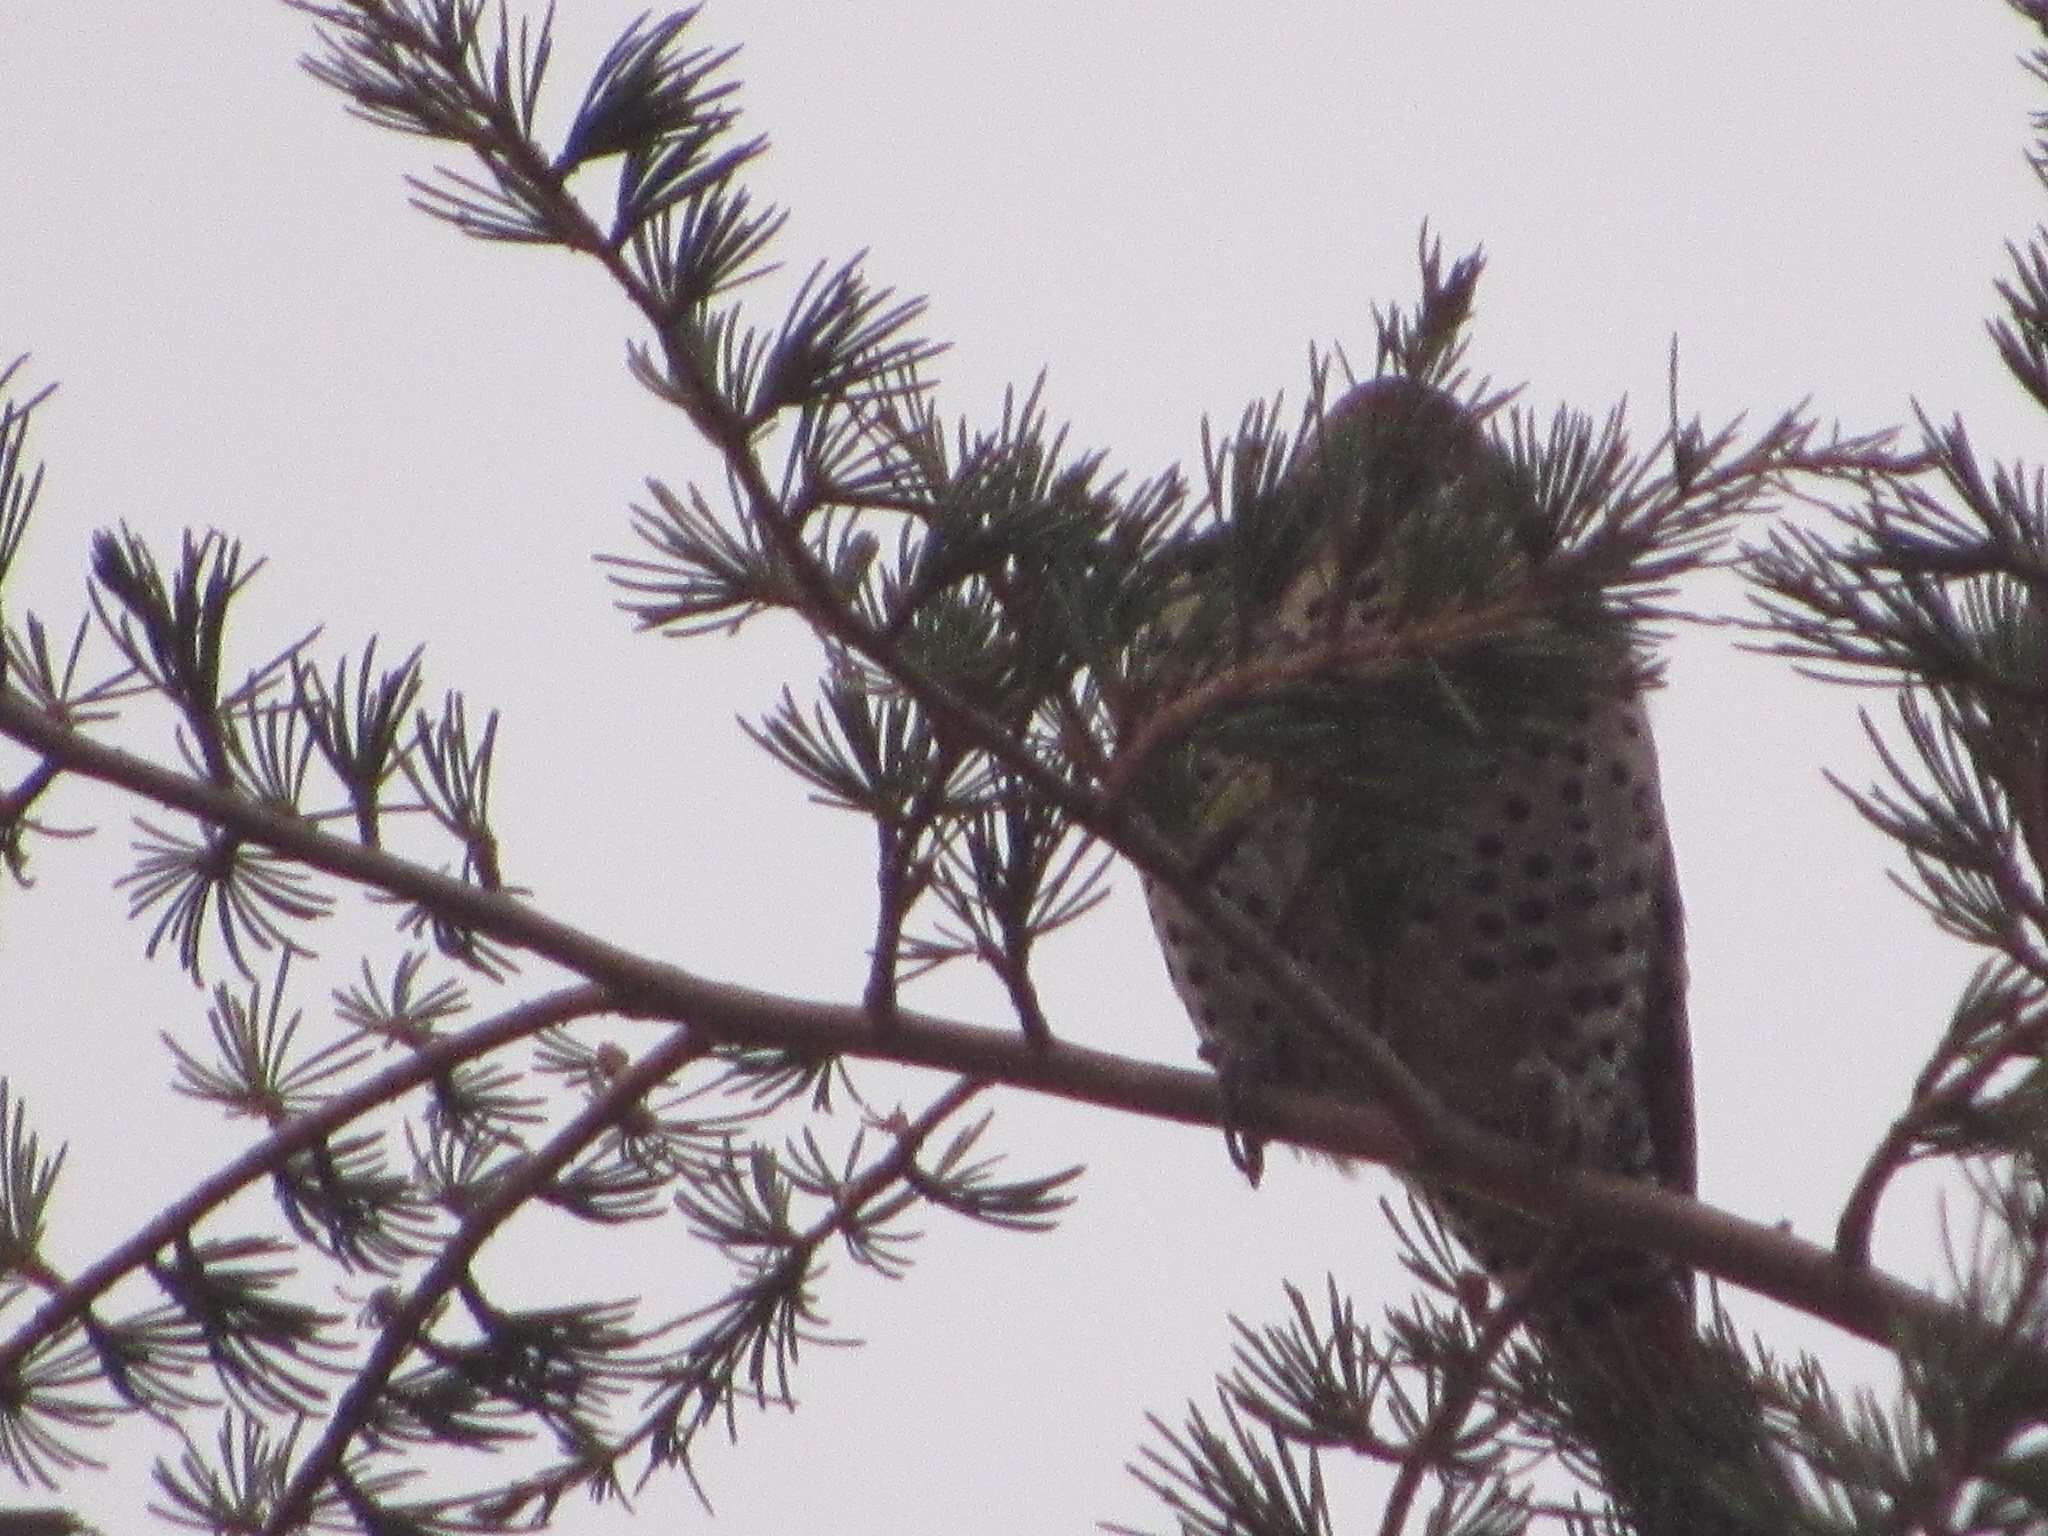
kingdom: Animalia
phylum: Chordata
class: Aves
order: Piciformes
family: Picidae
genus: Colaptes
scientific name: Colaptes auratus
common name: Northern flicker
